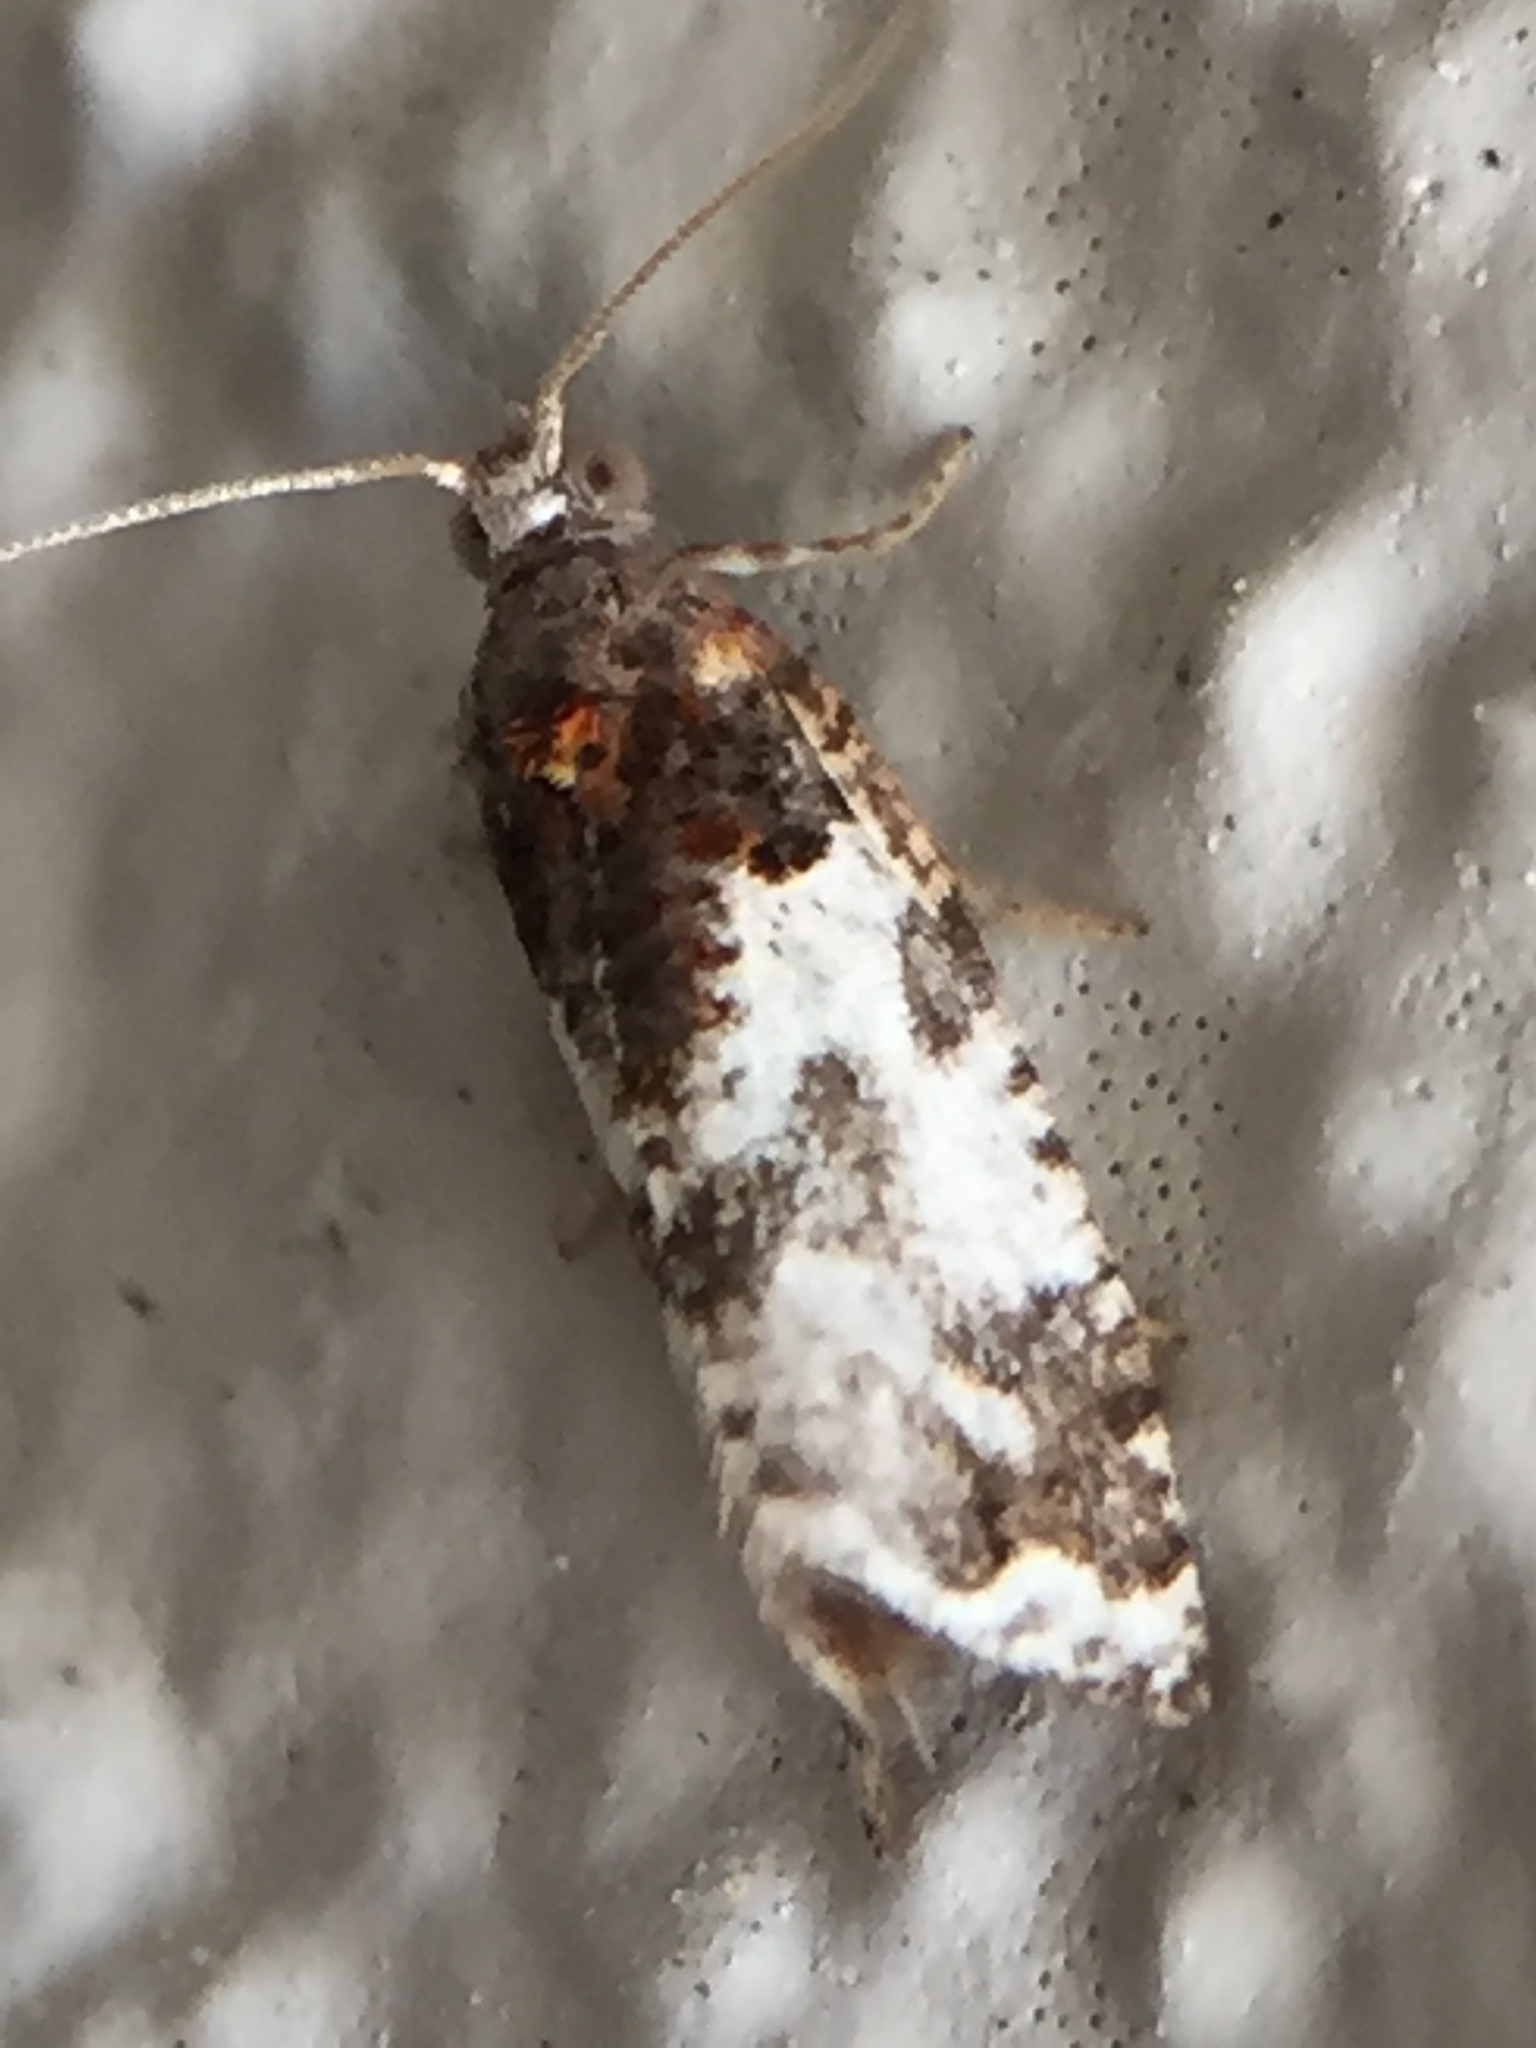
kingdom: Animalia
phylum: Arthropoda
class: Insecta
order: Lepidoptera
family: Tortricidae
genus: Pyrgotis
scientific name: Pyrgotis calligypsa
